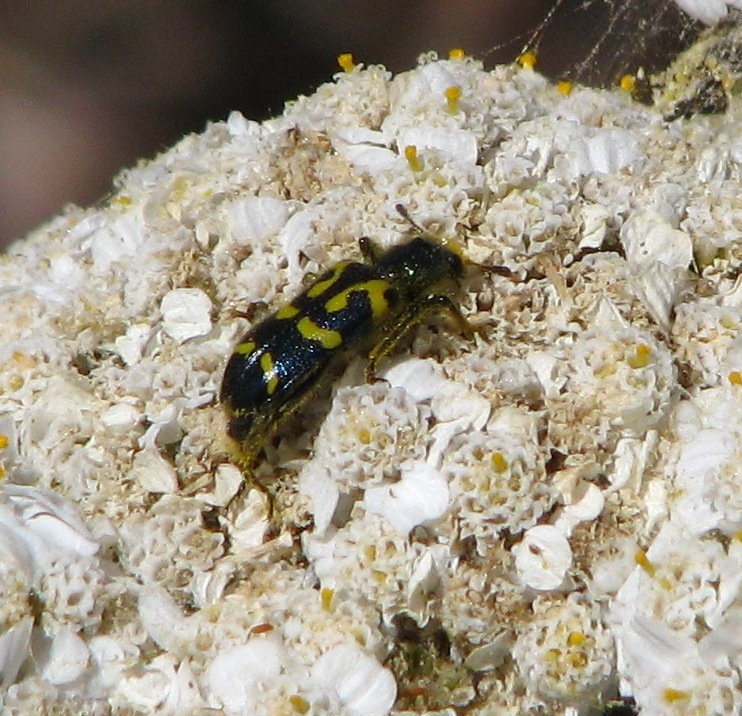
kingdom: Animalia
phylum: Arthropoda
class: Insecta
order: Coleoptera
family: Cleridae
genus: Trichodes
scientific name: Trichodes ornatus
